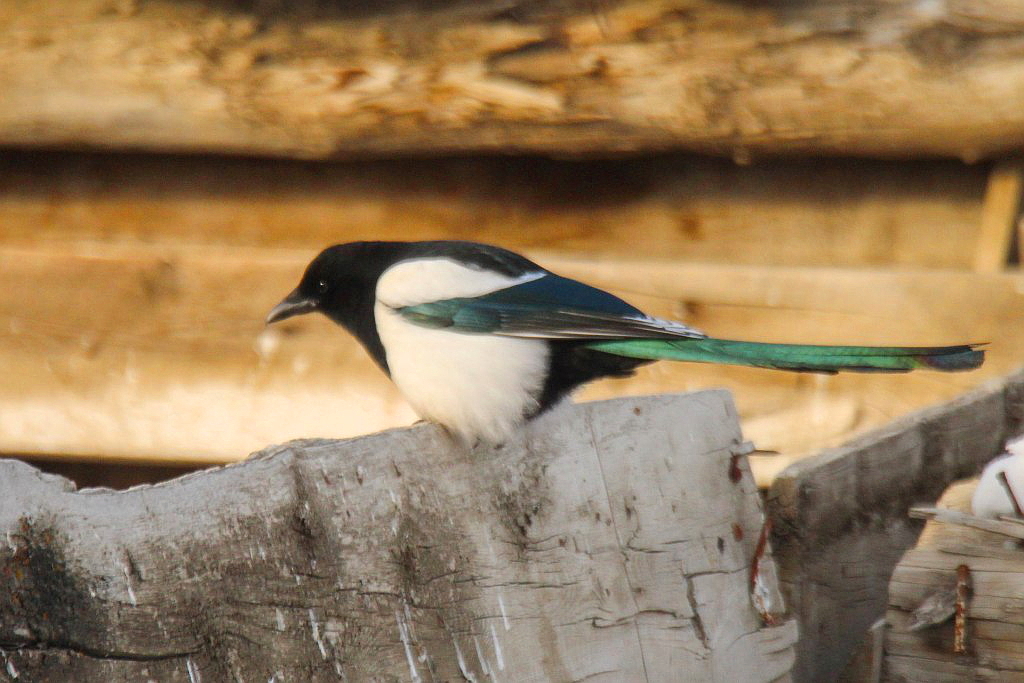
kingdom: Animalia
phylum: Chordata
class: Aves
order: Passeriformes
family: Corvidae
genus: Pica
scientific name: Pica pica
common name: Eurasian magpie
